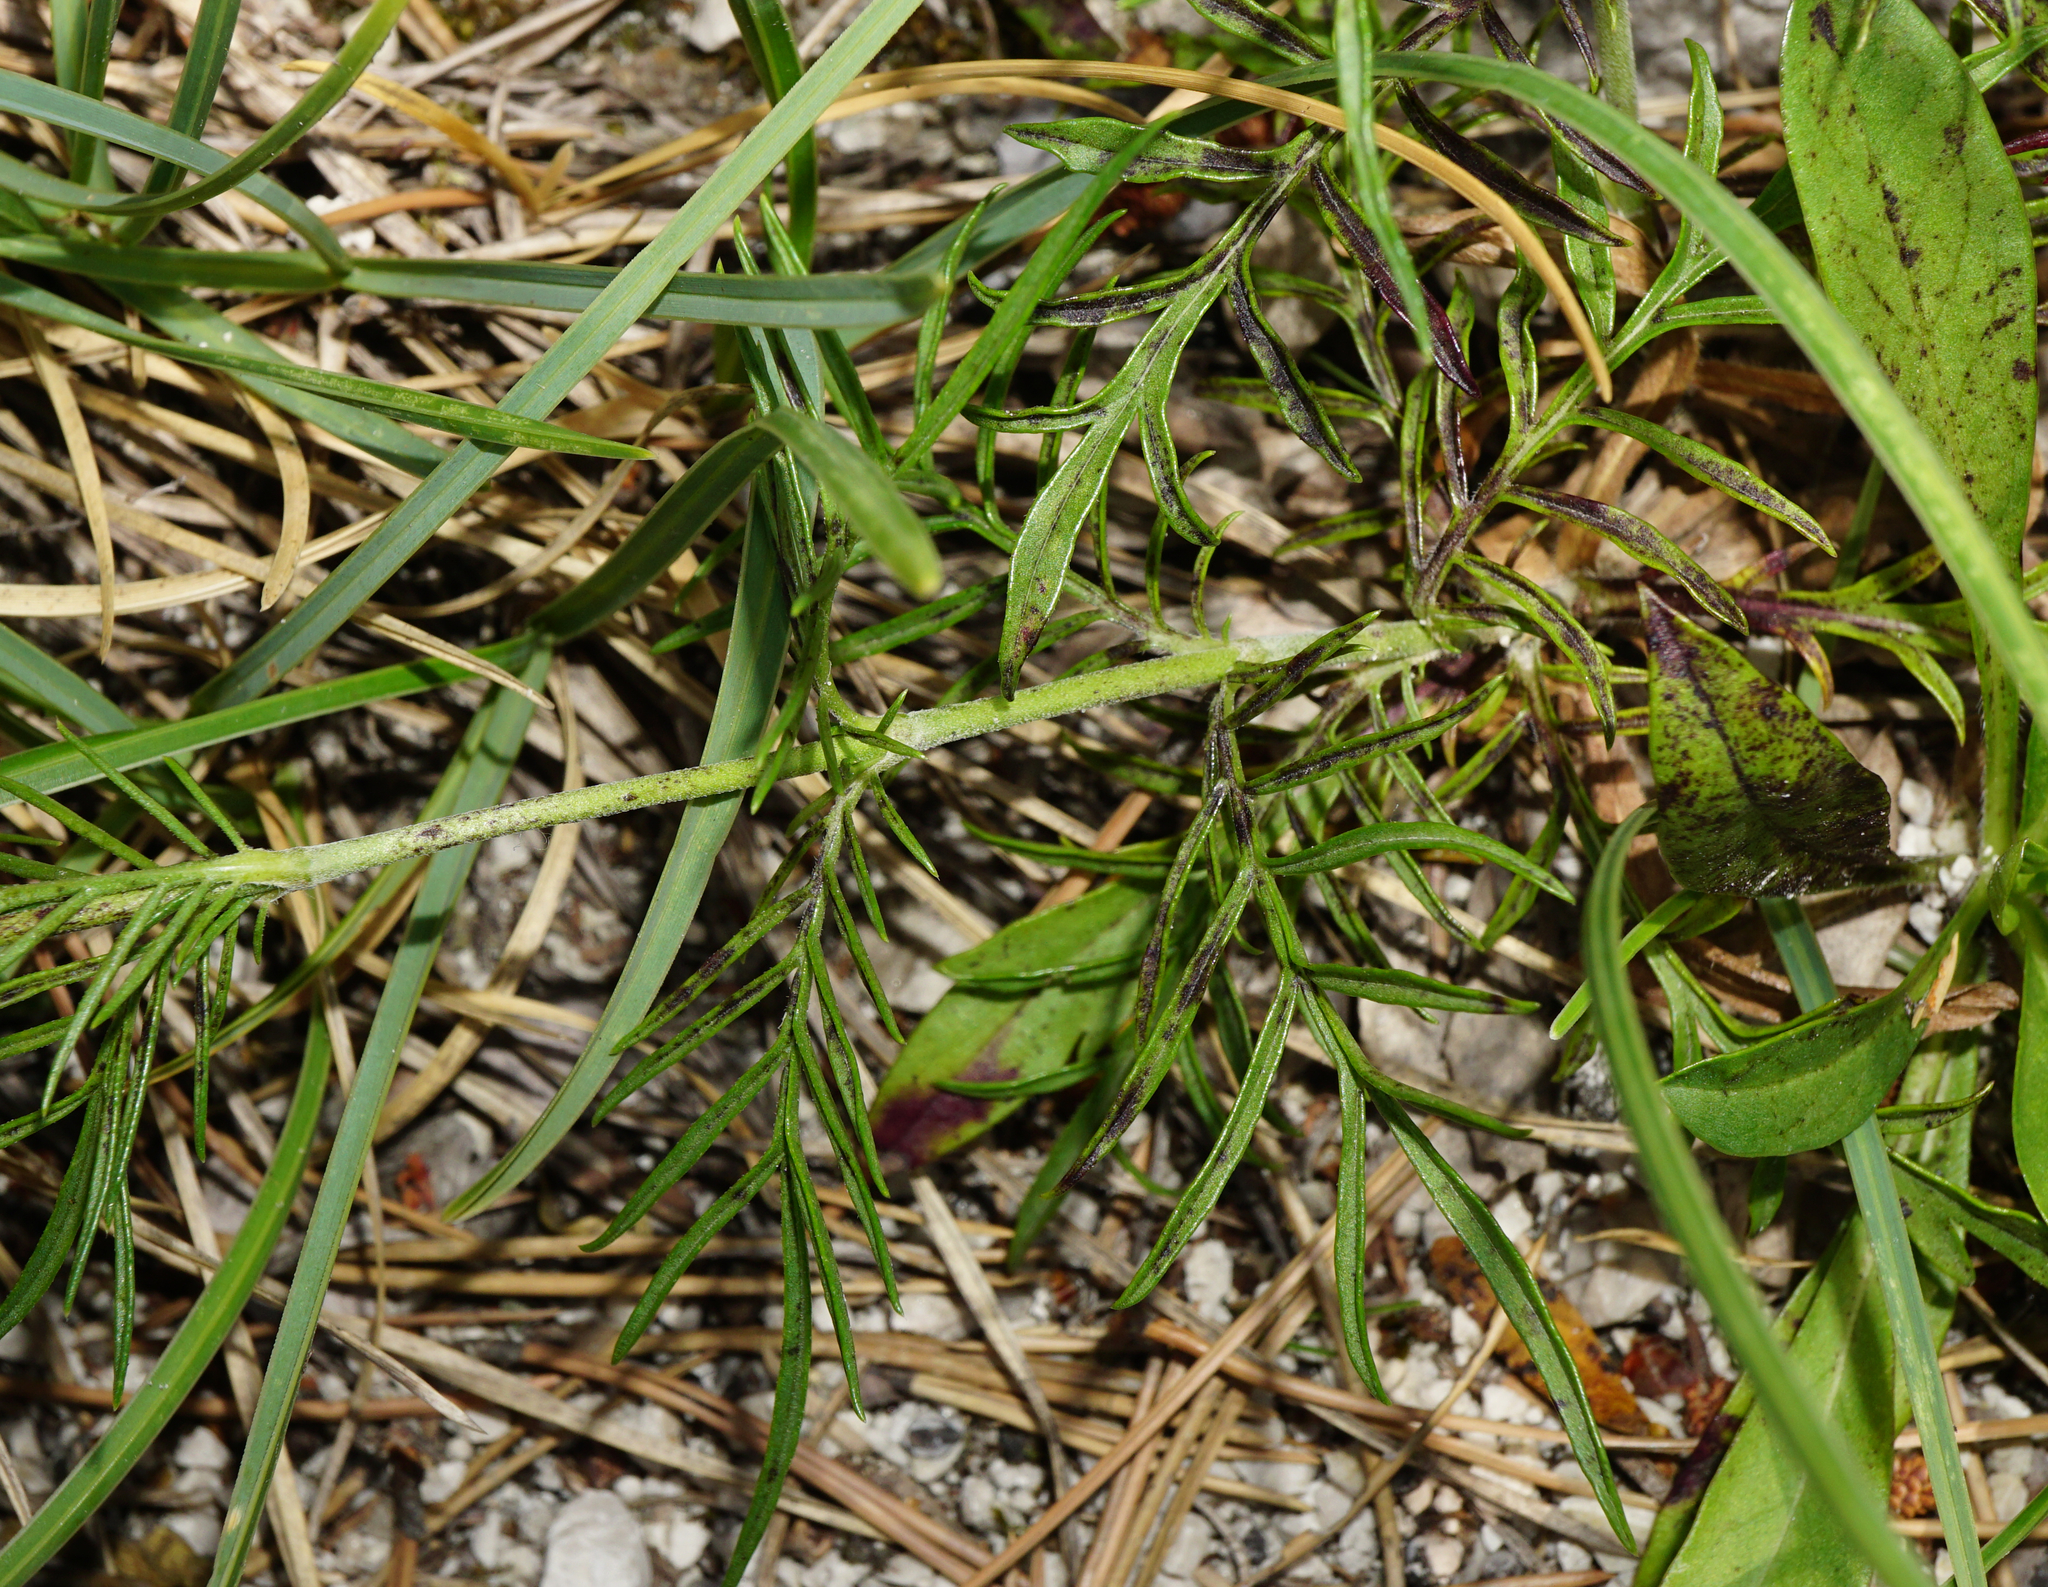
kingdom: Plantae
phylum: Tracheophyta
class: Magnoliopsida
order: Dipsacales
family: Caprifoliaceae
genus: Scabiosa
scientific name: Scabiosa canescens
